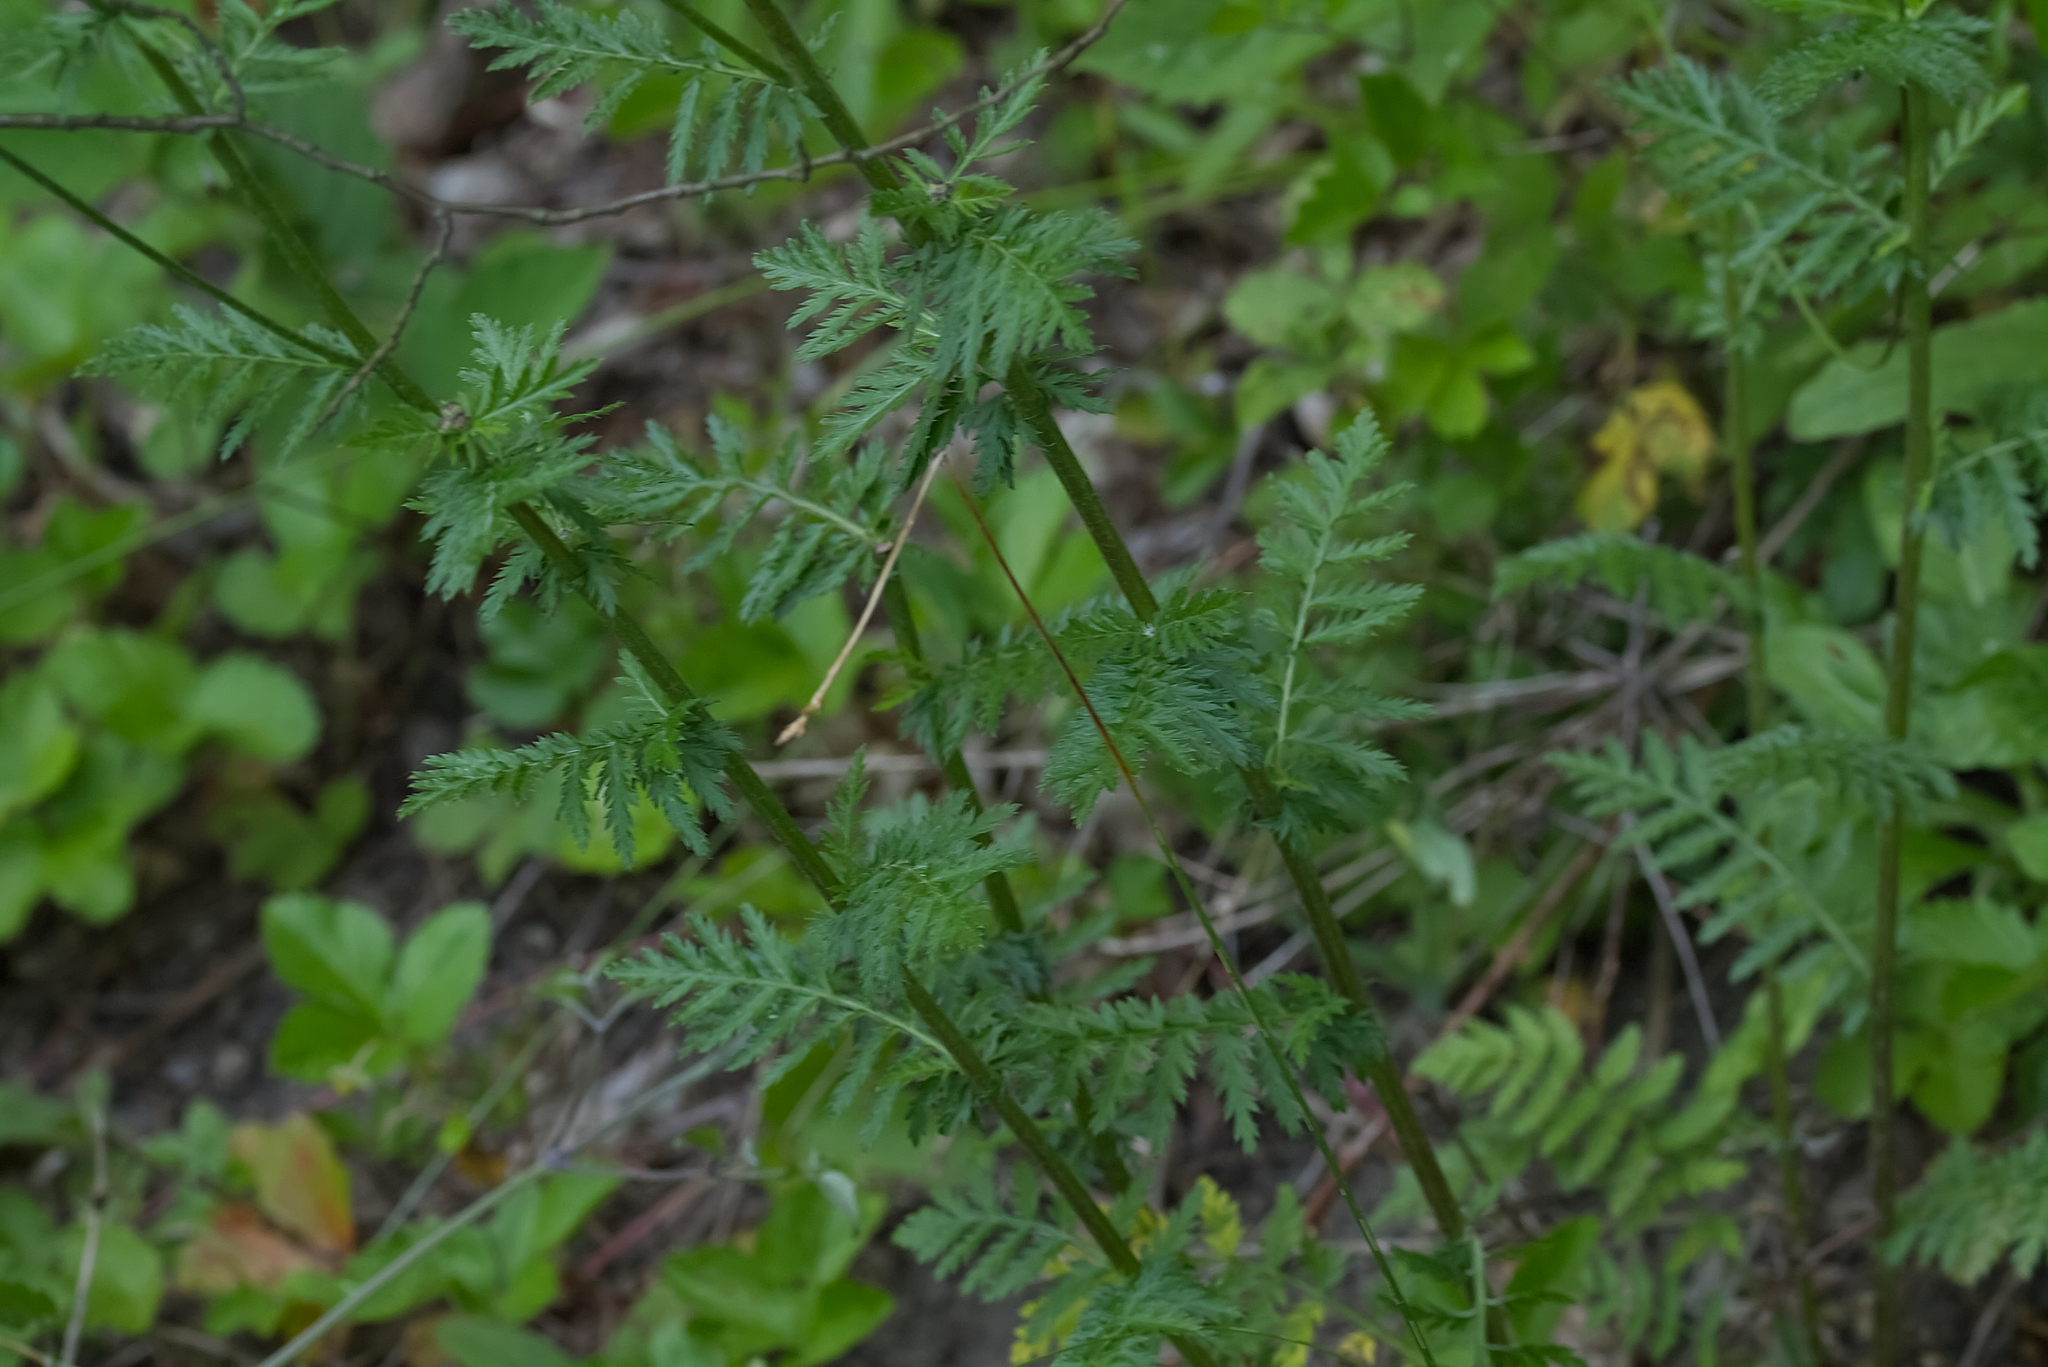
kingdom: Plantae
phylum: Tracheophyta
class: Magnoliopsida
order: Asterales
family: Asteraceae
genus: Tanacetum
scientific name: Tanacetum corymbosum
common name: Scentless feverfew
